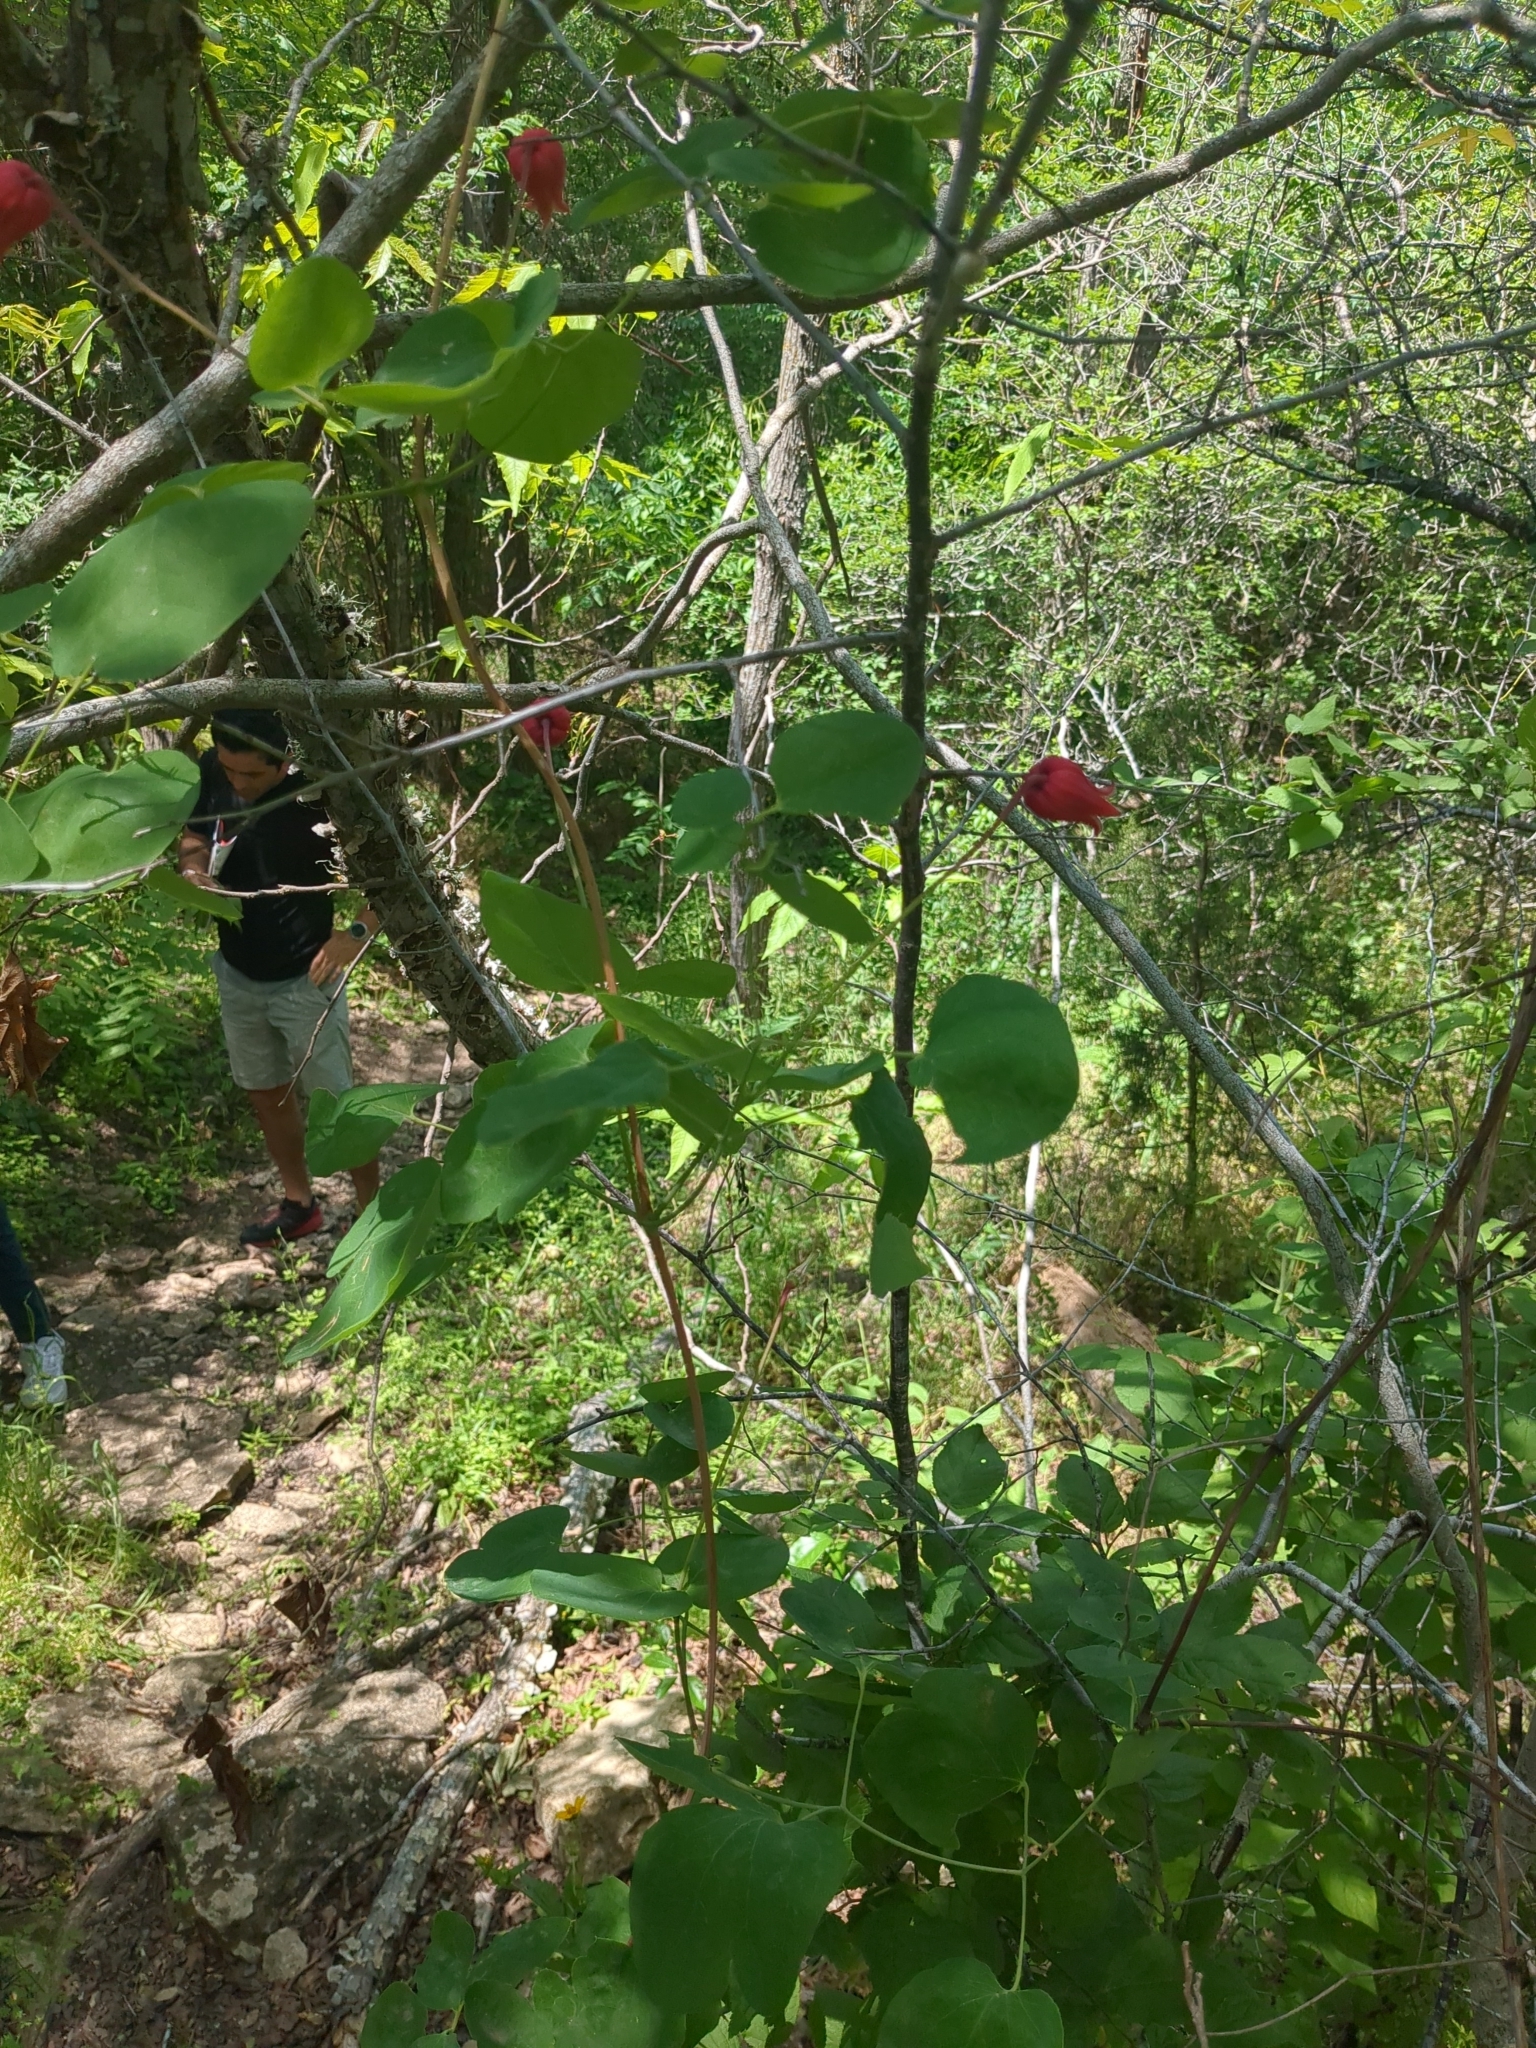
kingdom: Plantae
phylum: Tracheophyta
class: Magnoliopsida
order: Ranunculales
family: Ranunculaceae
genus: Clematis
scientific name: Clematis texensis
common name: Crimson clematis
